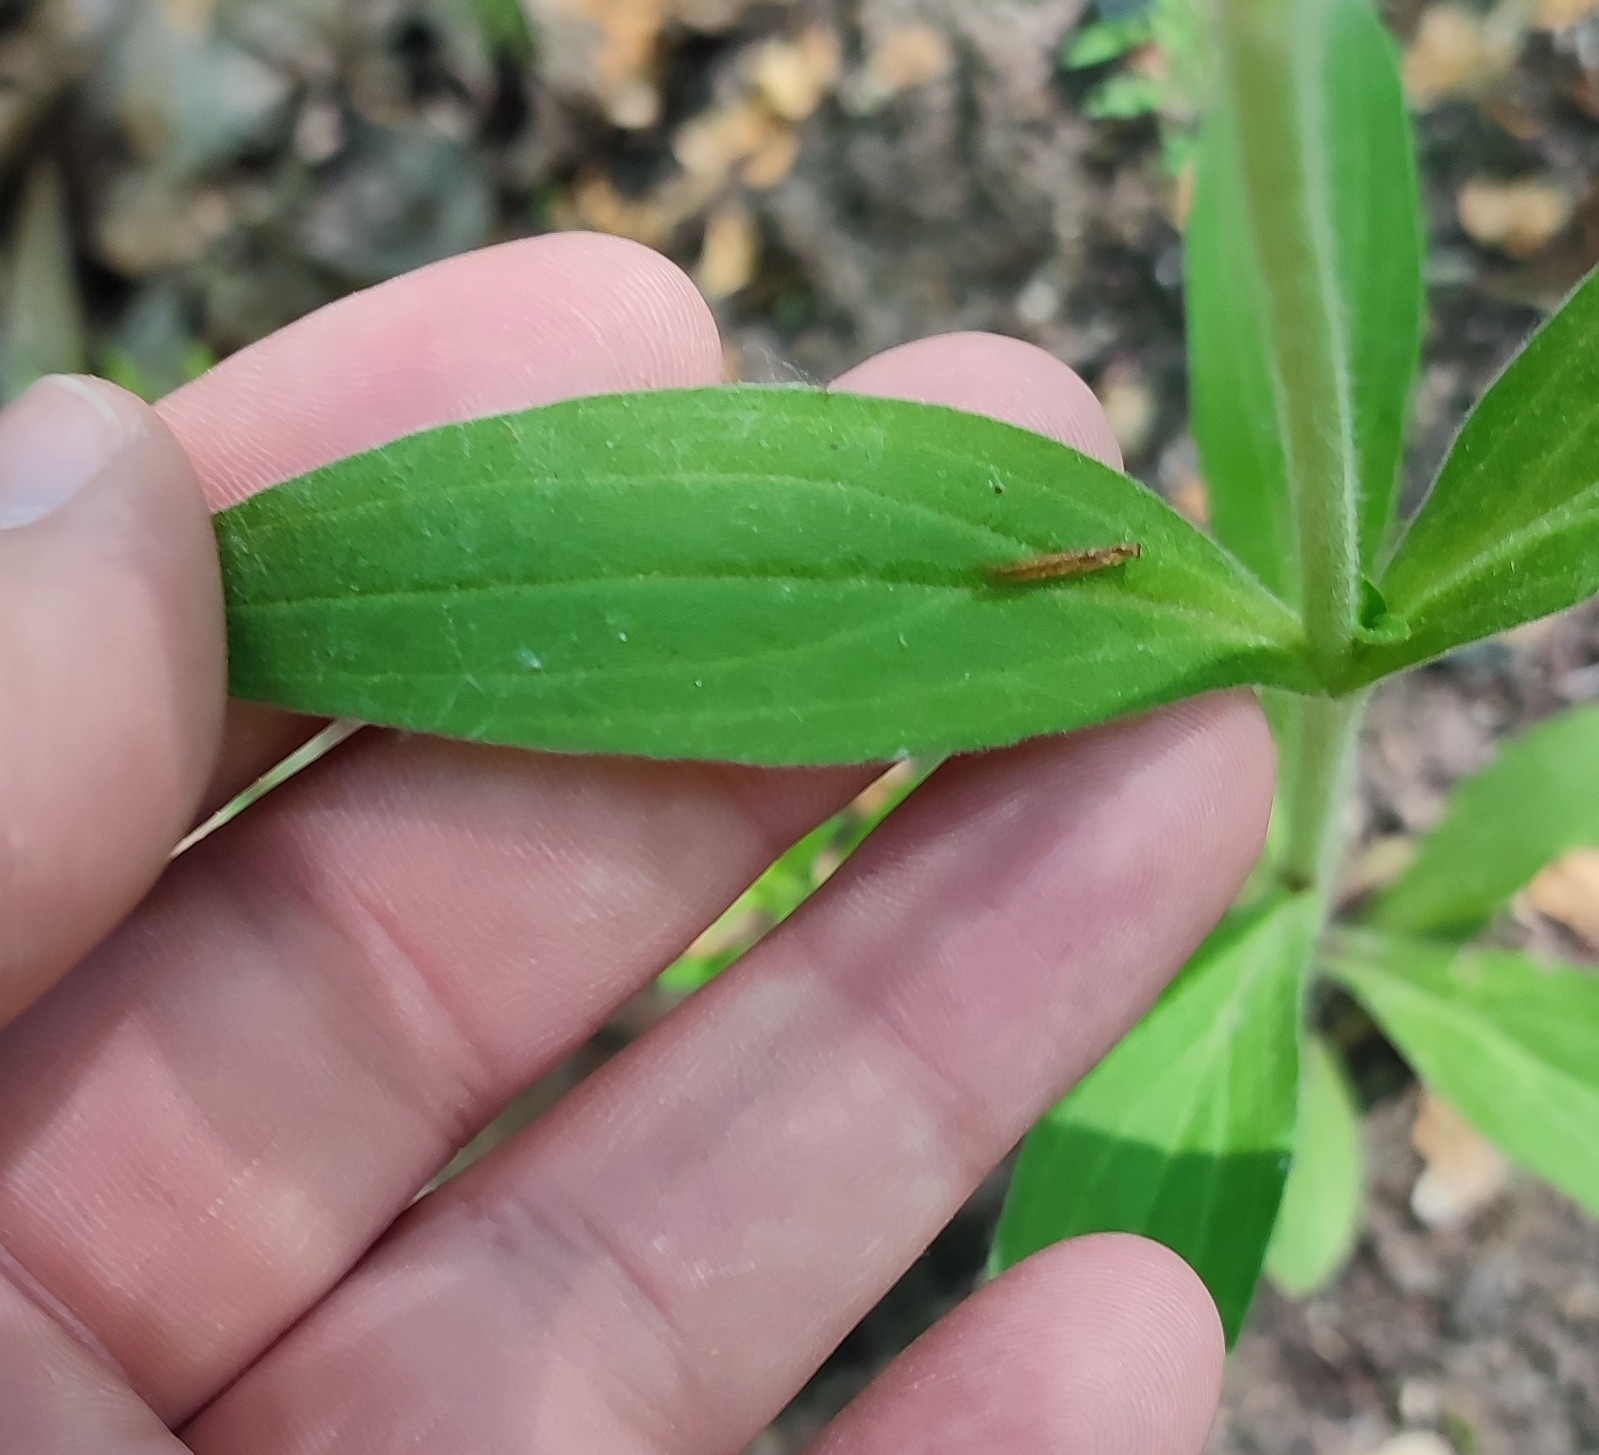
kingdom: Plantae
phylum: Tracheophyta
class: Magnoliopsida
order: Caryophyllales
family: Caryophyllaceae
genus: Silene
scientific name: Silene latifolia
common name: White campion
